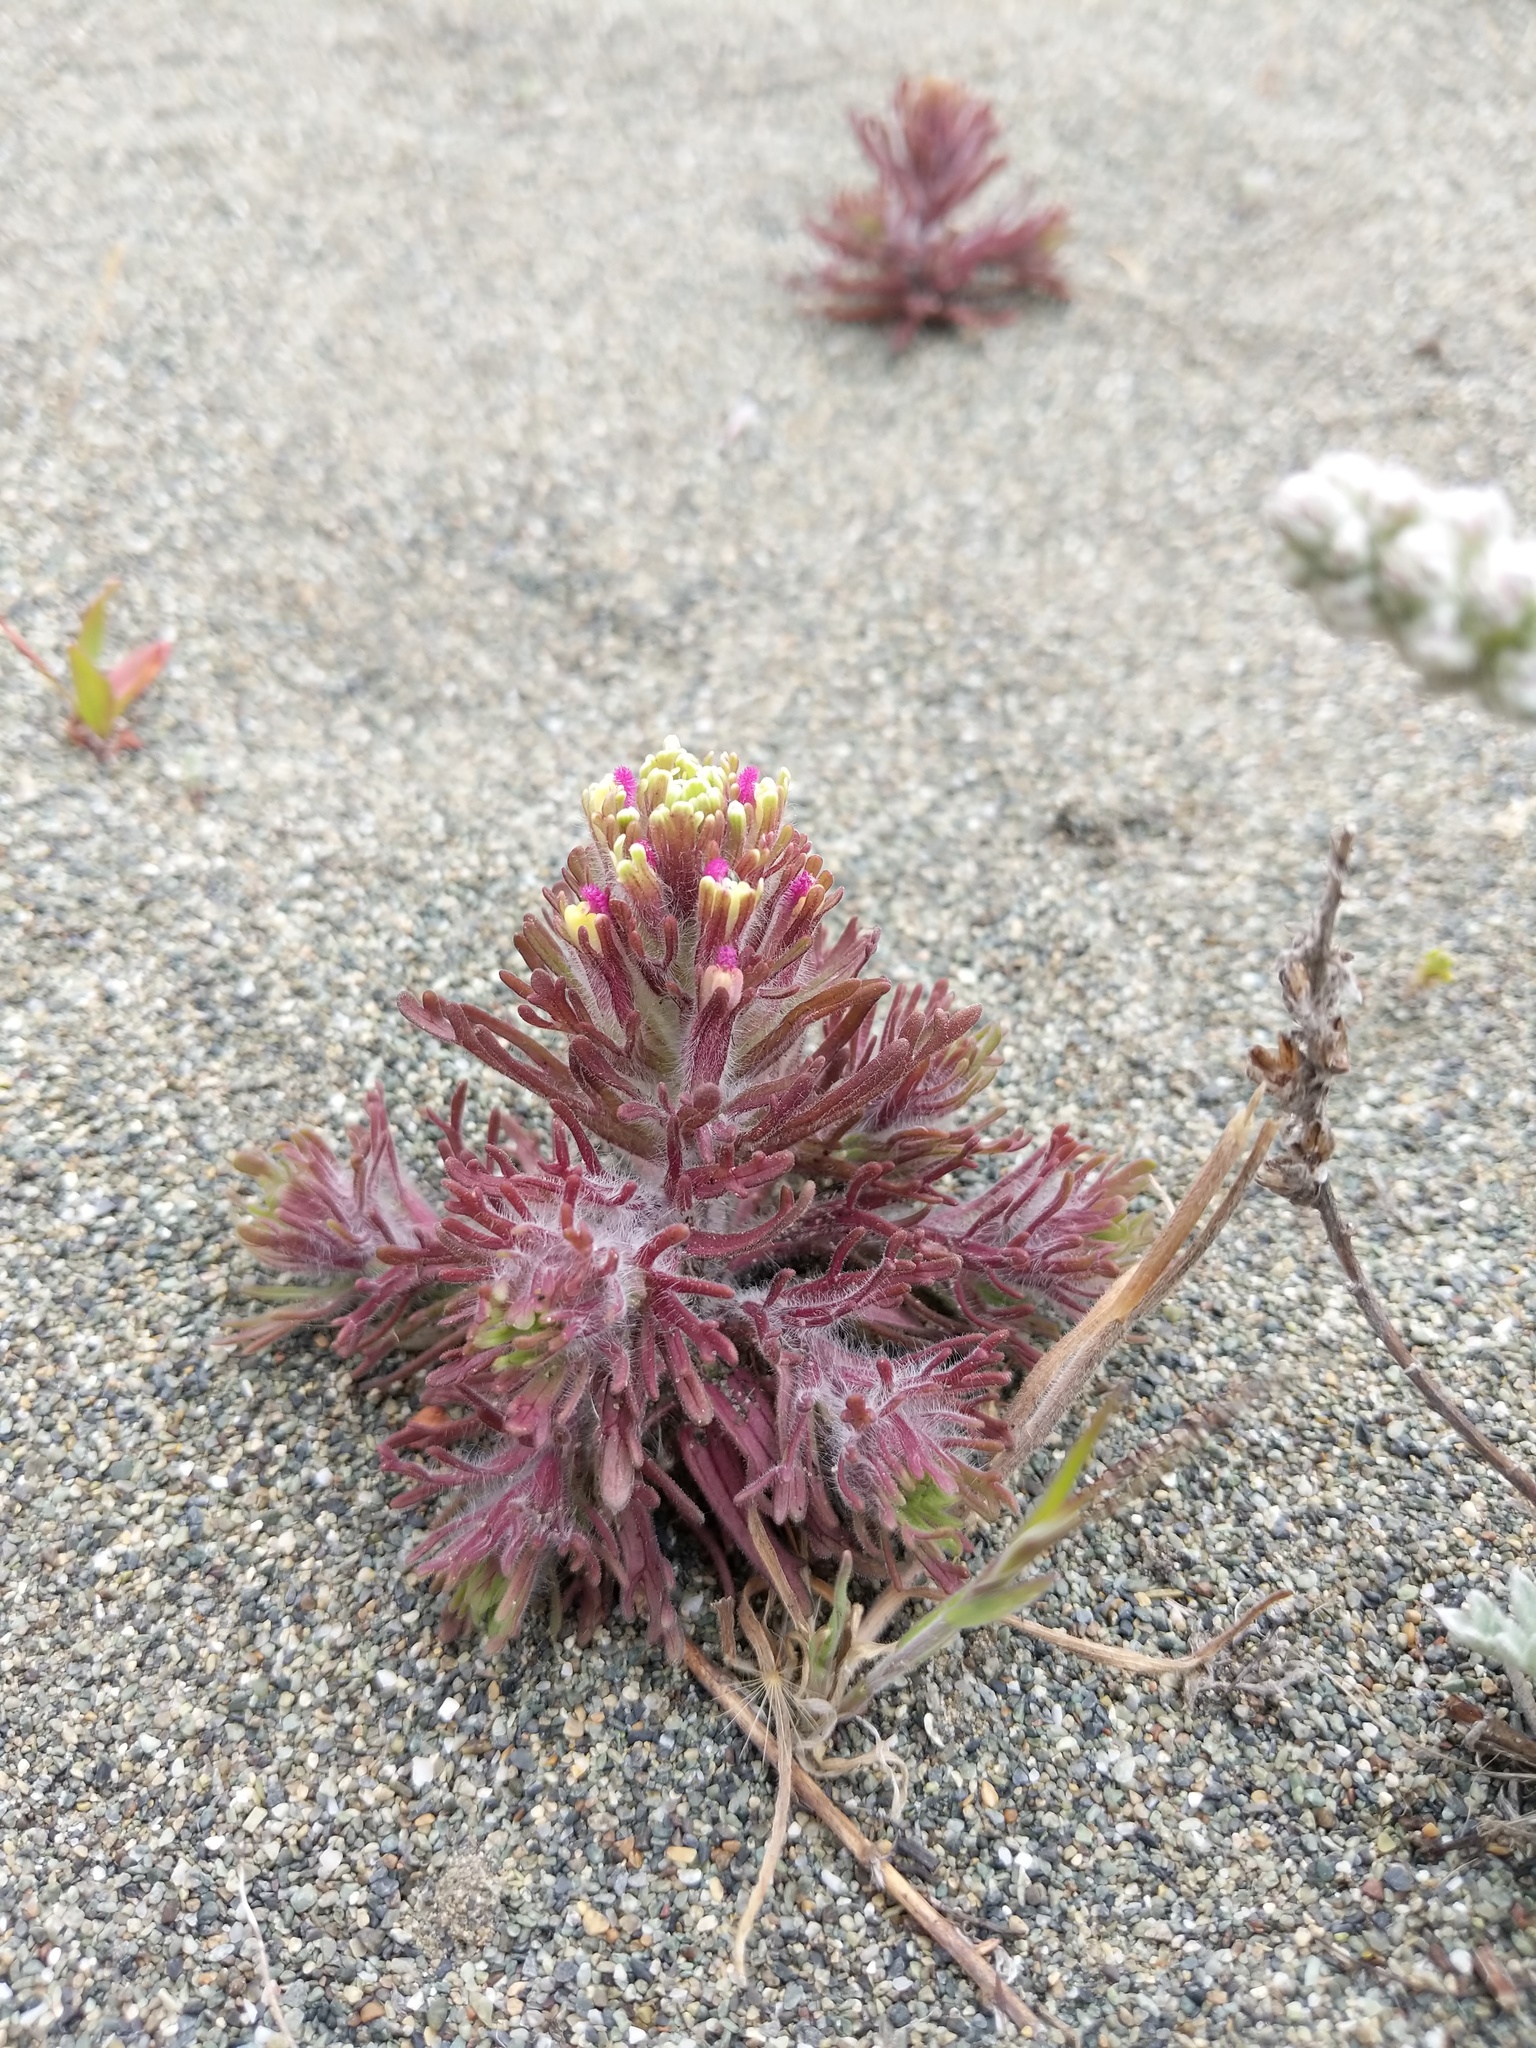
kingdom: Plantae
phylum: Tracheophyta
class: Magnoliopsida
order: Lamiales
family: Orobanchaceae
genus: Castilleja
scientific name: Castilleja exserta
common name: Purple owl-clover
